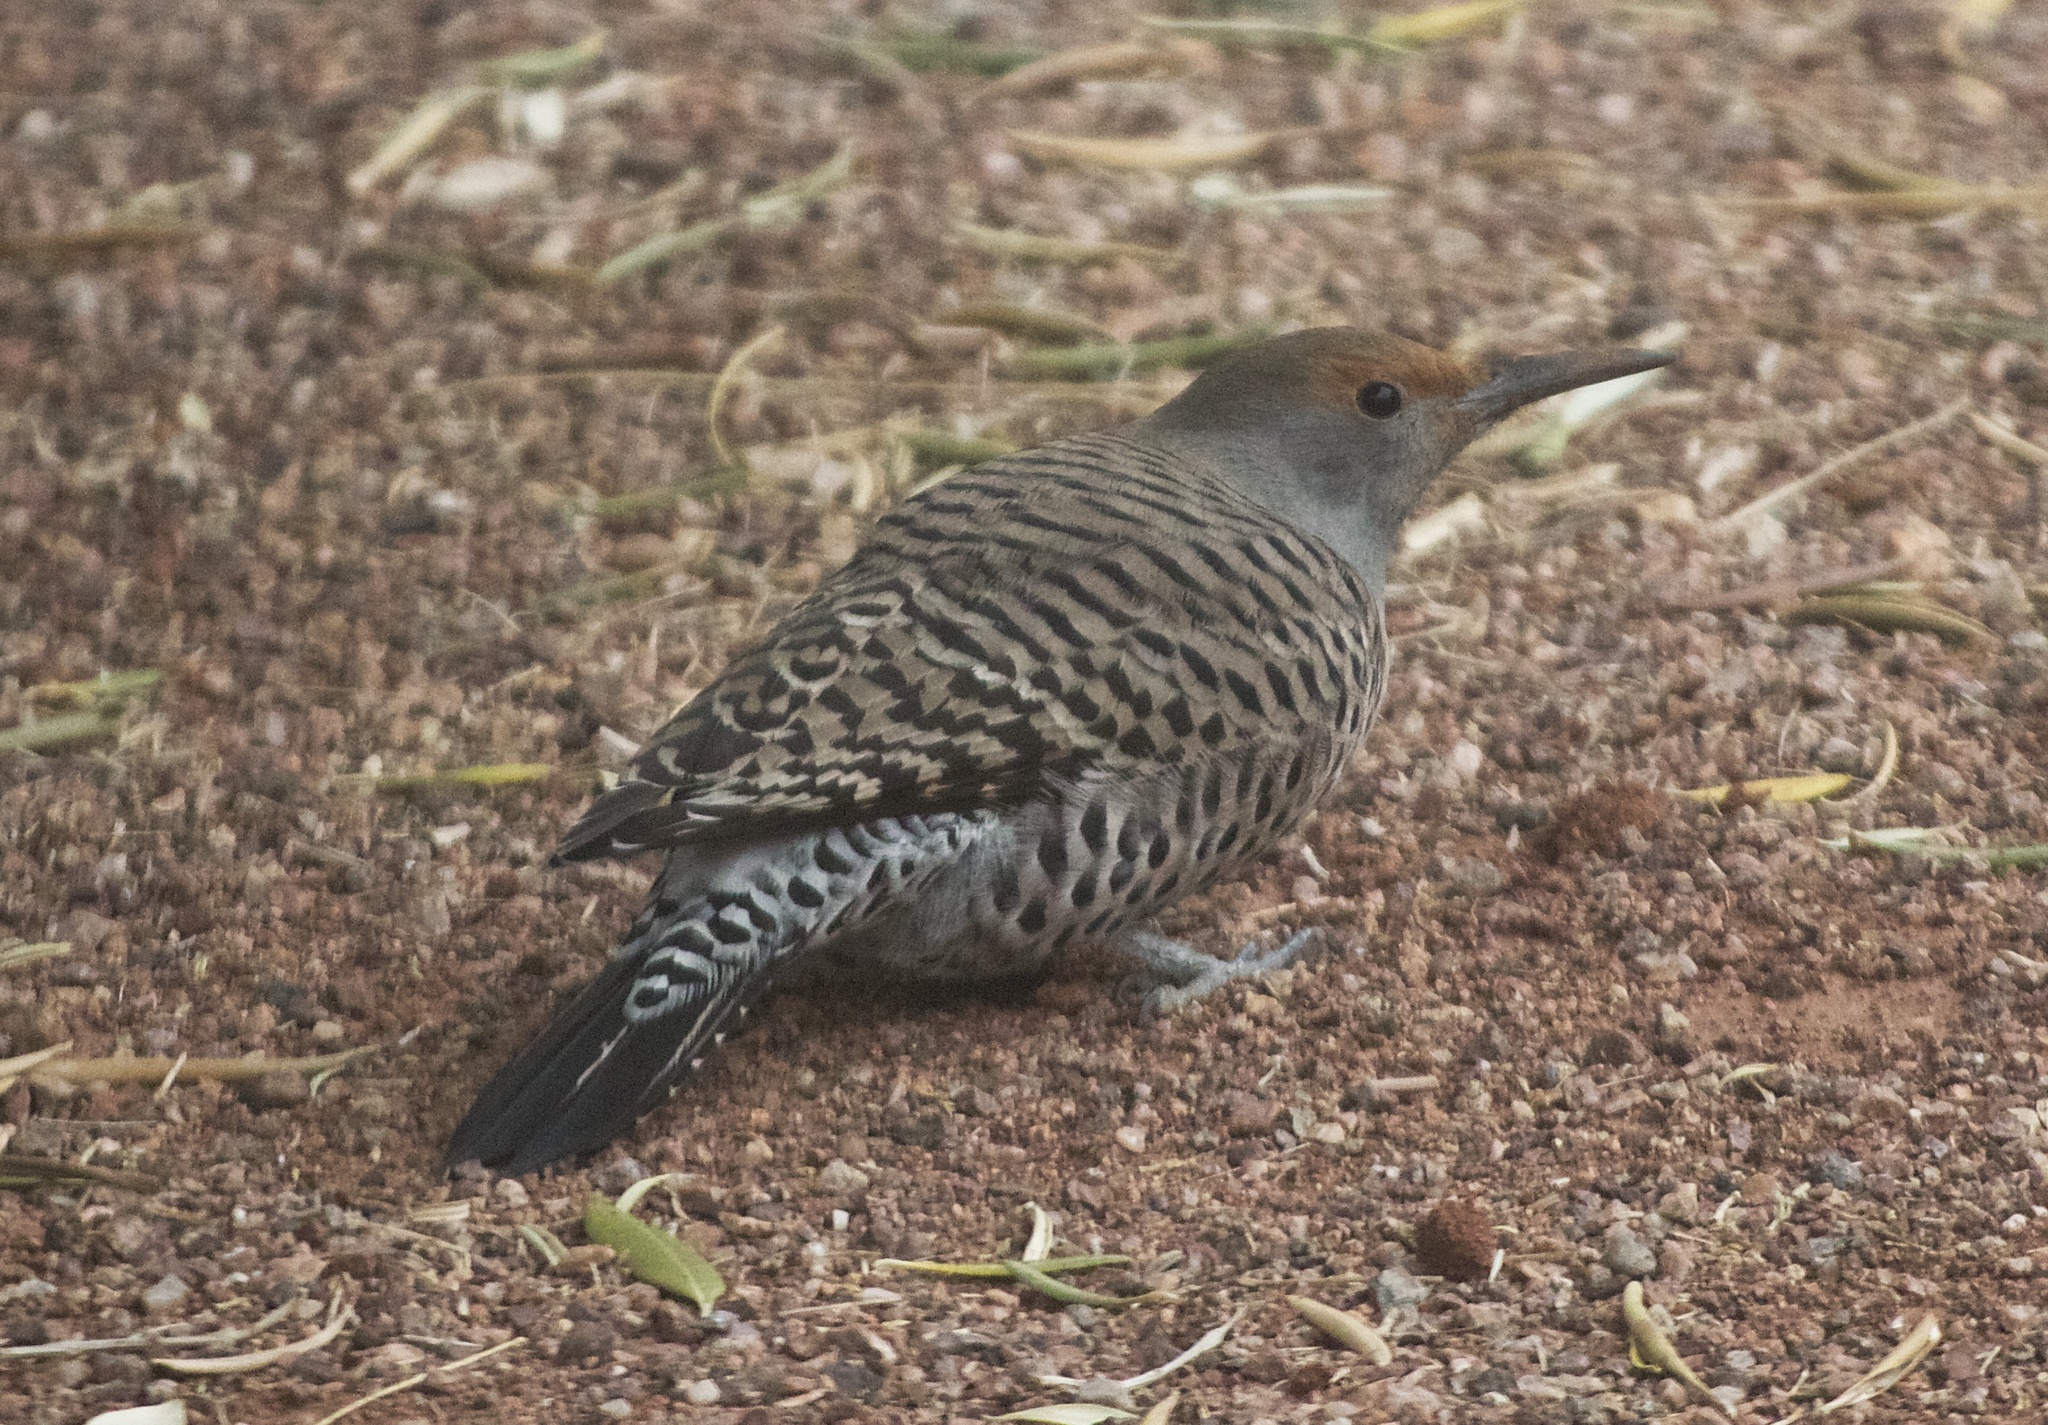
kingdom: Animalia
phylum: Chordata
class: Aves
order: Piciformes
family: Picidae
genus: Colaptes
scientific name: Colaptes auratus
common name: Northern flicker
